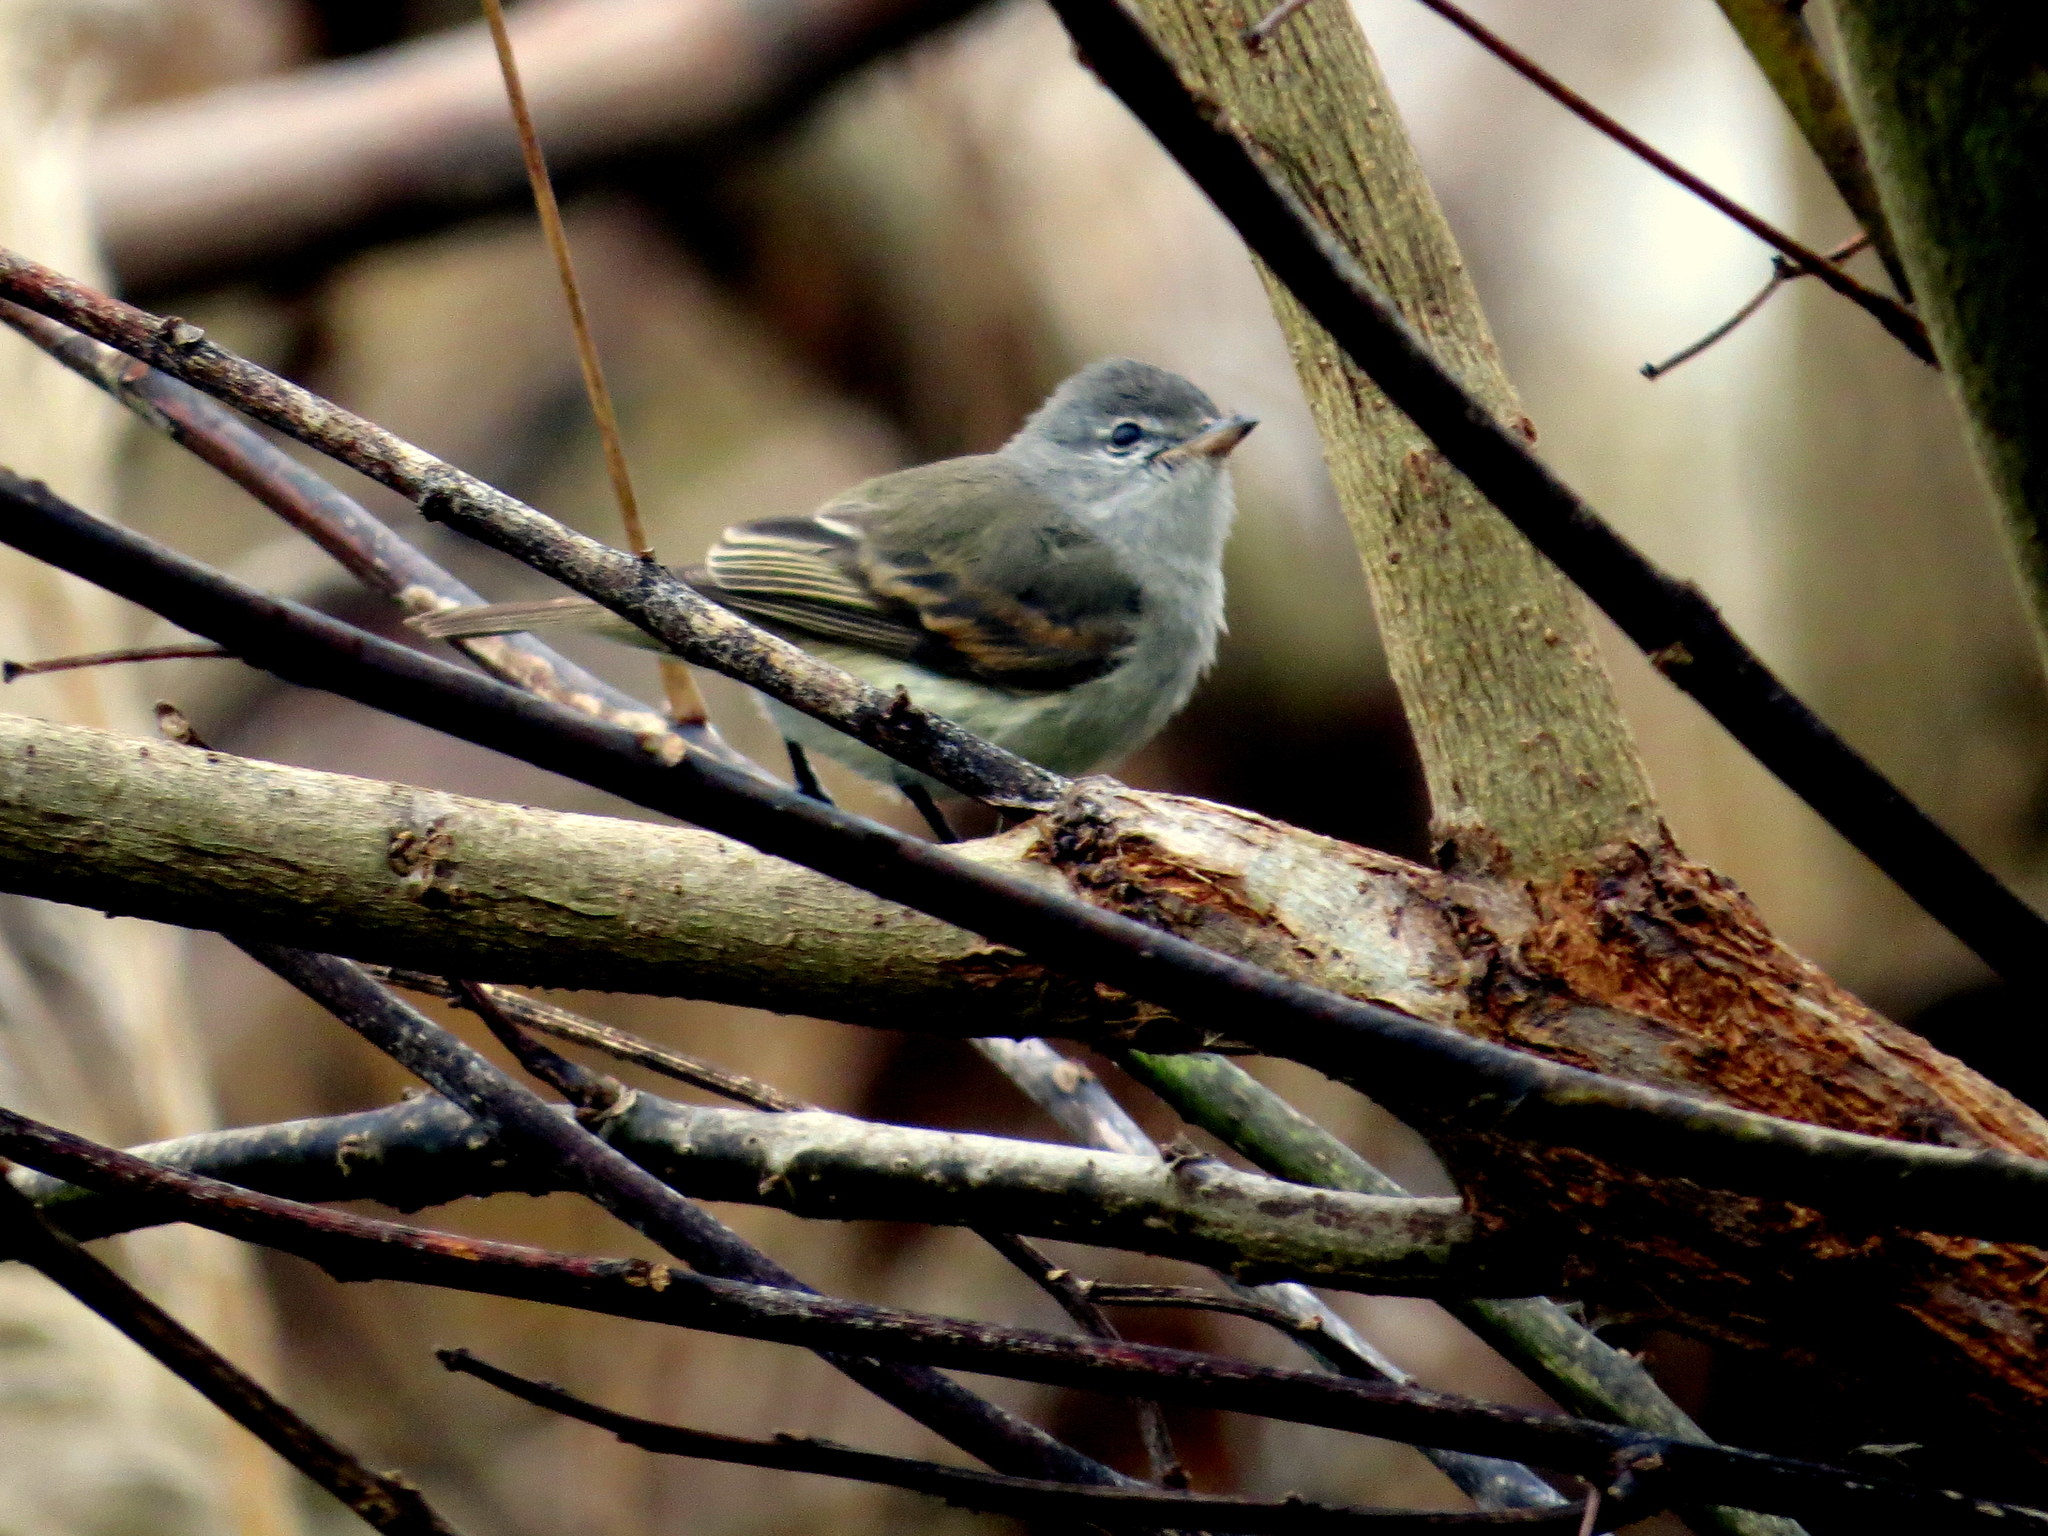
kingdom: Animalia
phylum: Chordata
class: Aves
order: Passeriformes
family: Tyrannidae
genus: Camptostoma
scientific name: Camptostoma obsoletum
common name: Southern beardless-tyrannulet
